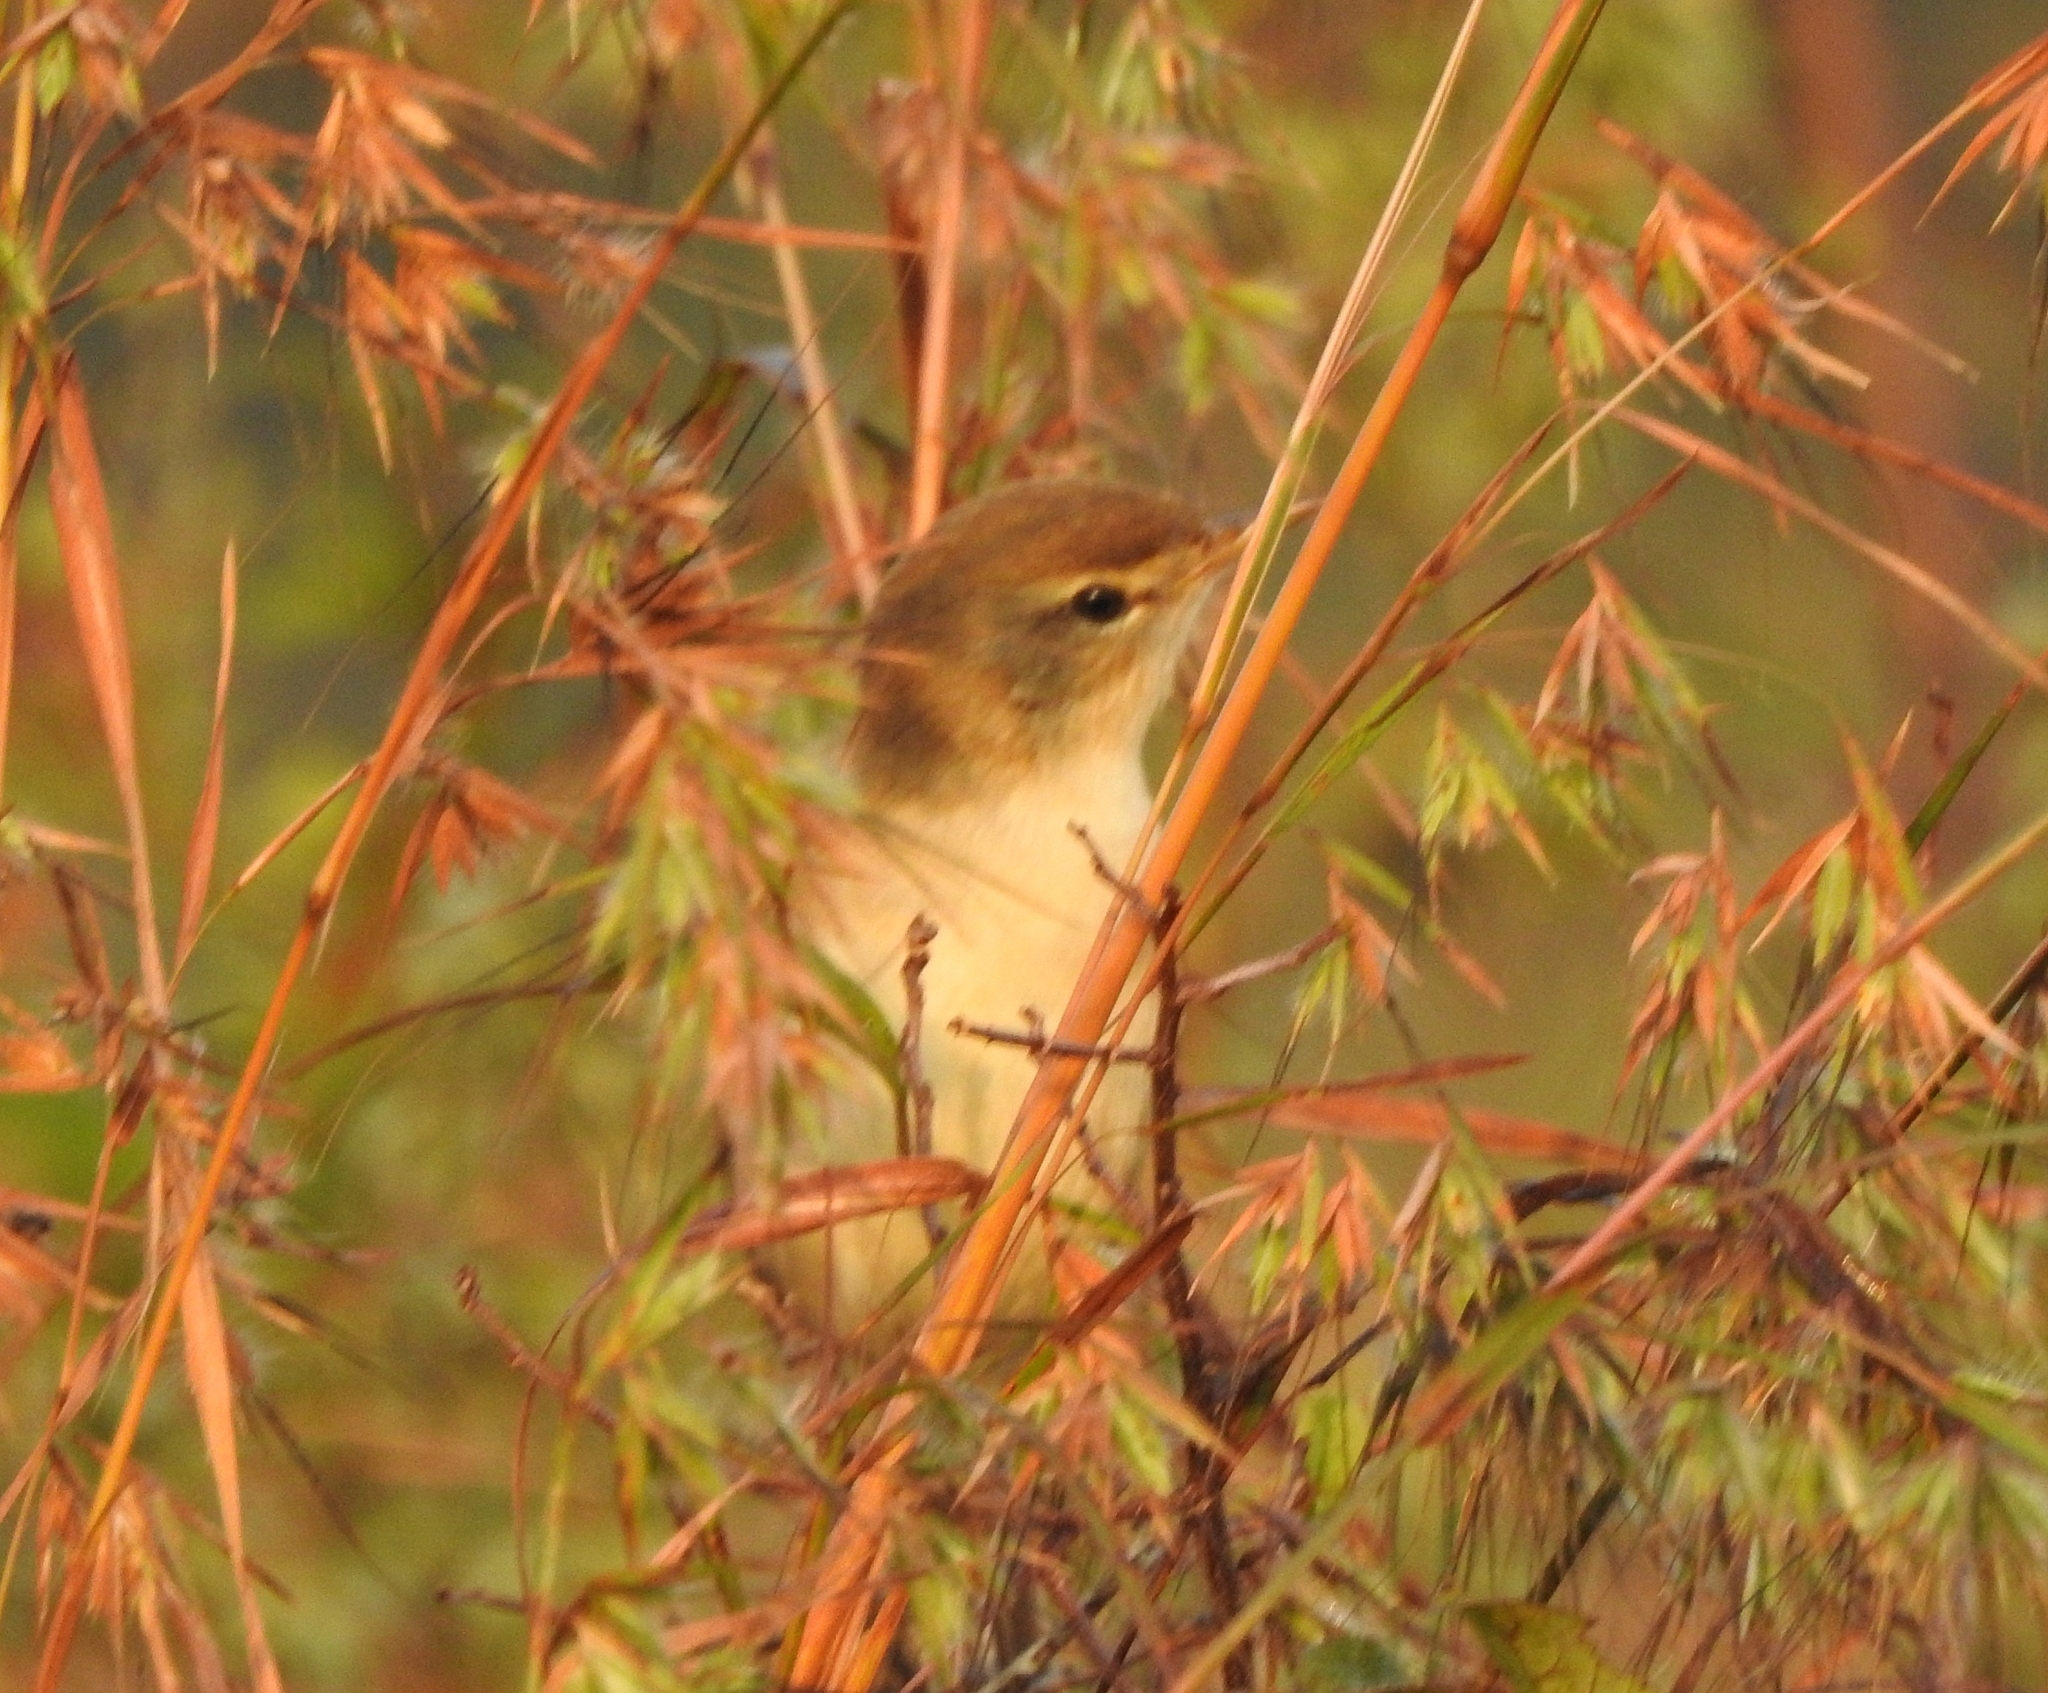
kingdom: Animalia
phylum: Chordata
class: Aves
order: Passeriformes
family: Acrocephalidae
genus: Iduna
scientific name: Iduna caligata
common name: Booted warbler
